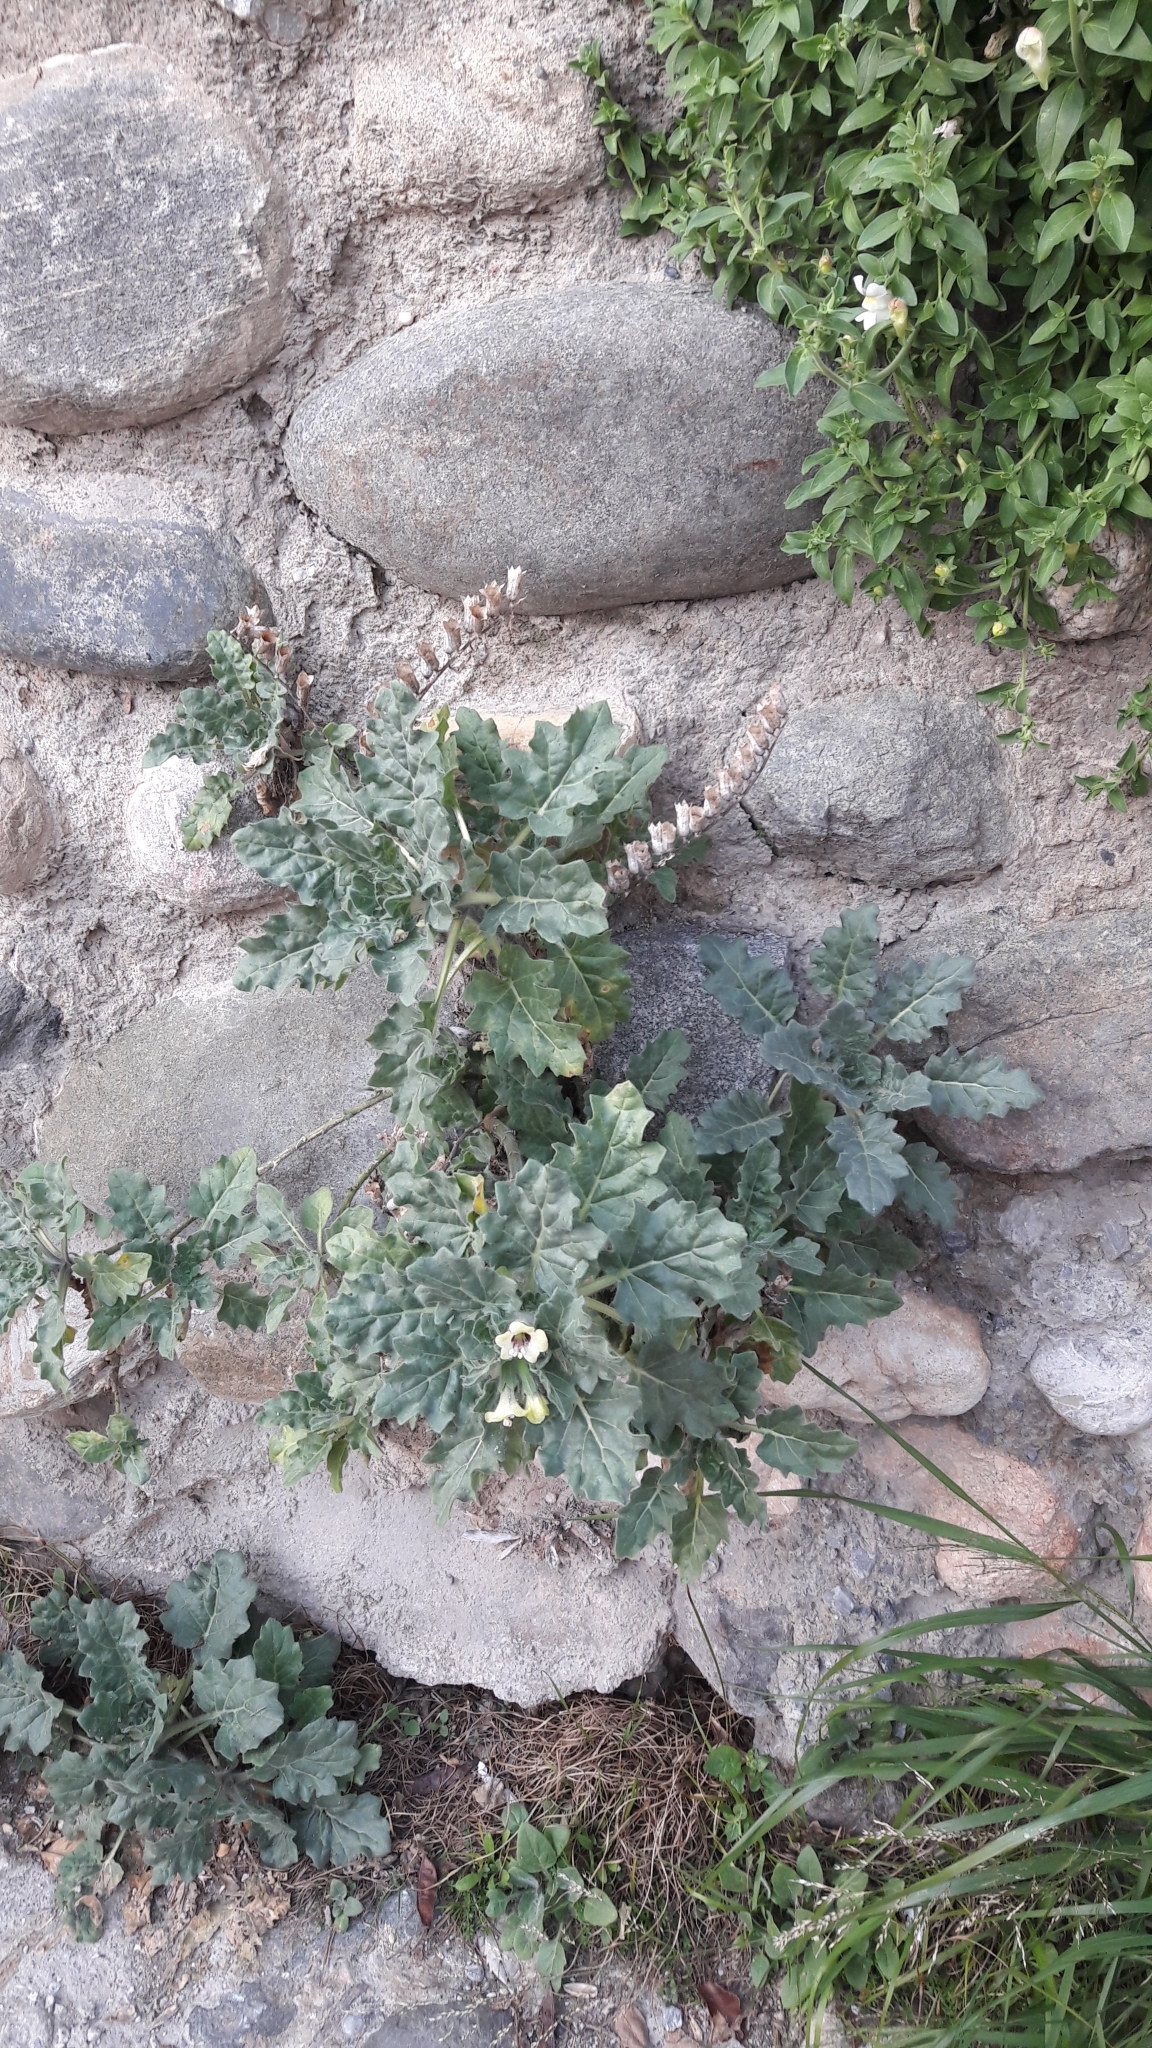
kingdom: Plantae
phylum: Tracheophyta
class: Magnoliopsida
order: Solanales
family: Solanaceae
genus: Hyoscyamus
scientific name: Hyoscyamus albus
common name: White henbane
